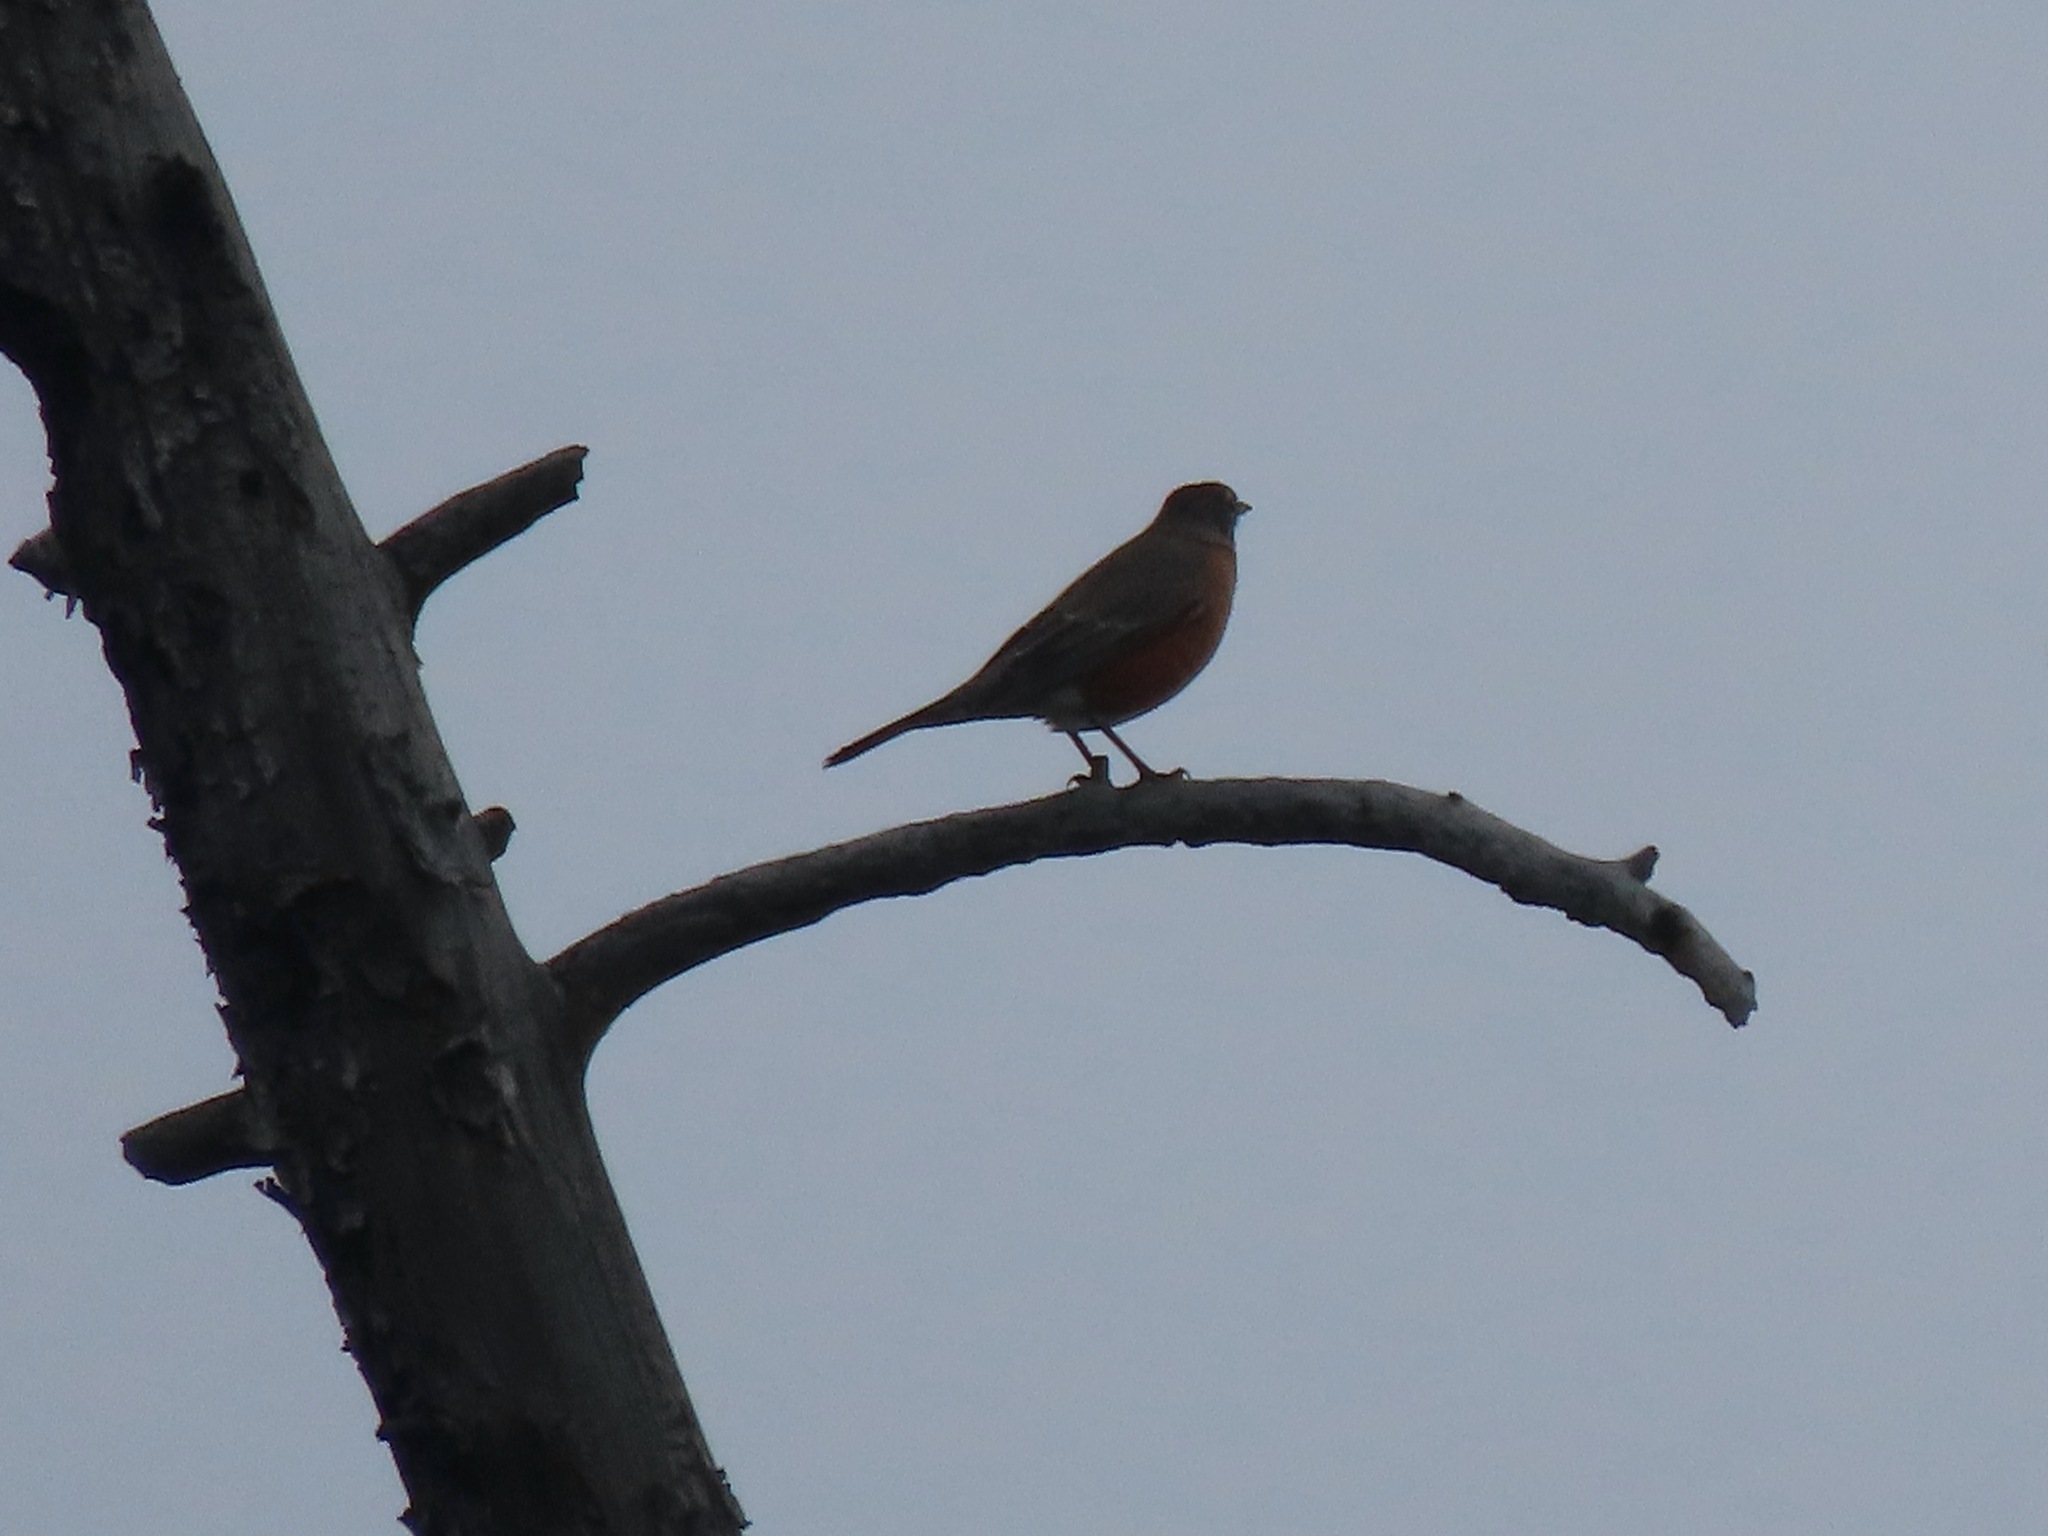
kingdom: Animalia
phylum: Chordata
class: Aves
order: Passeriformes
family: Turdidae
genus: Turdus
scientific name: Turdus migratorius
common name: American robin
